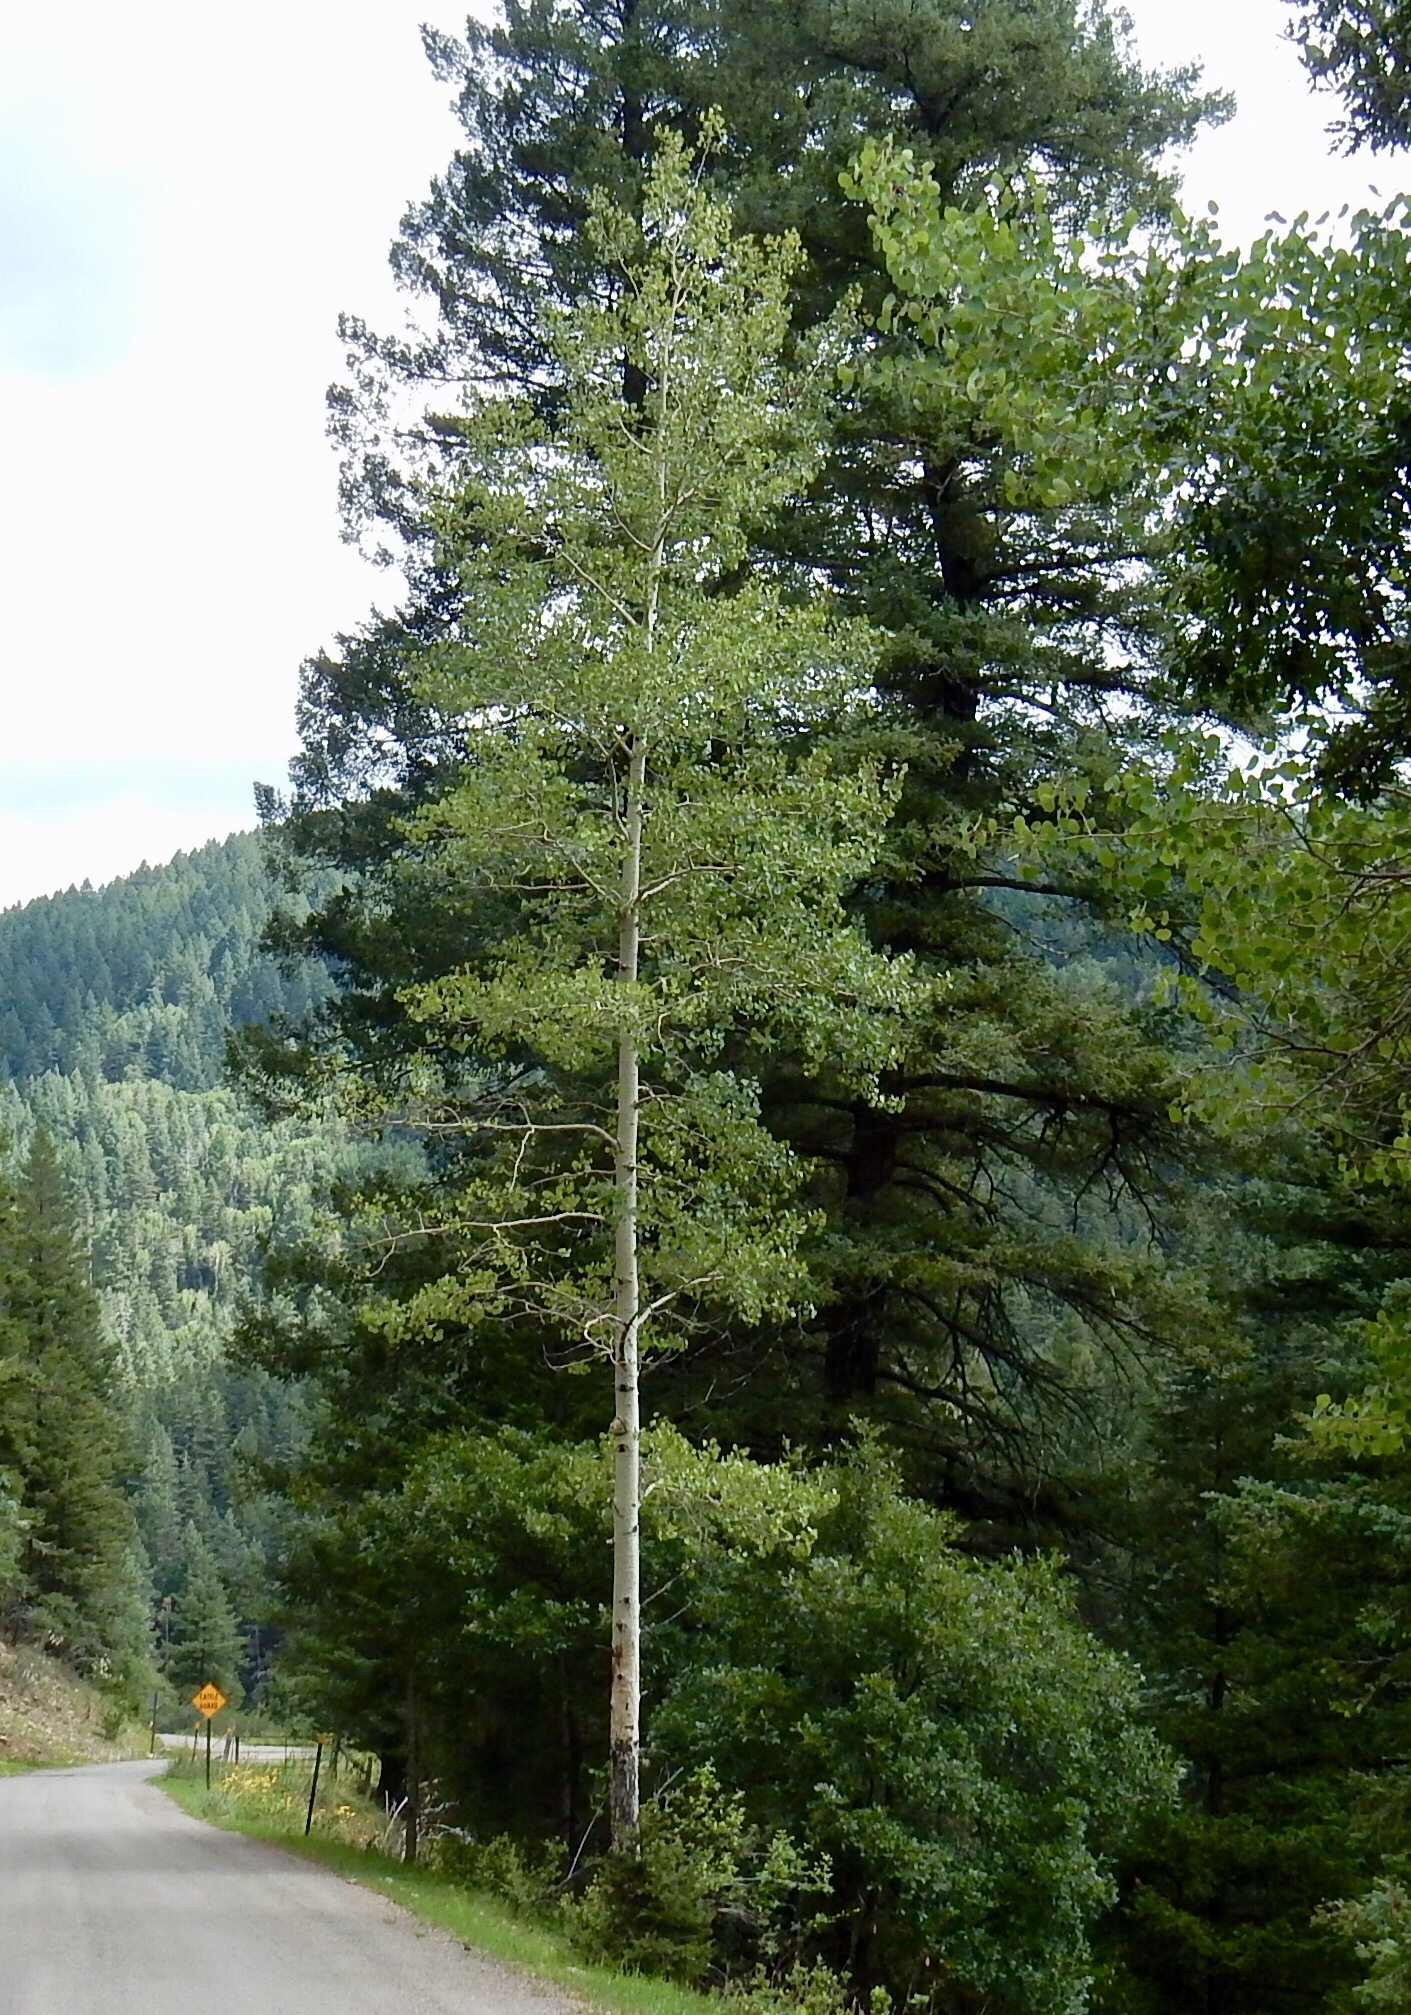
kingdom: Plantae
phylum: Tracheophyta
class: Magnoliopsida
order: Malpighiales
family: Salicaceae
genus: Populus
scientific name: Populus tremuloides
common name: Quaking aspen
